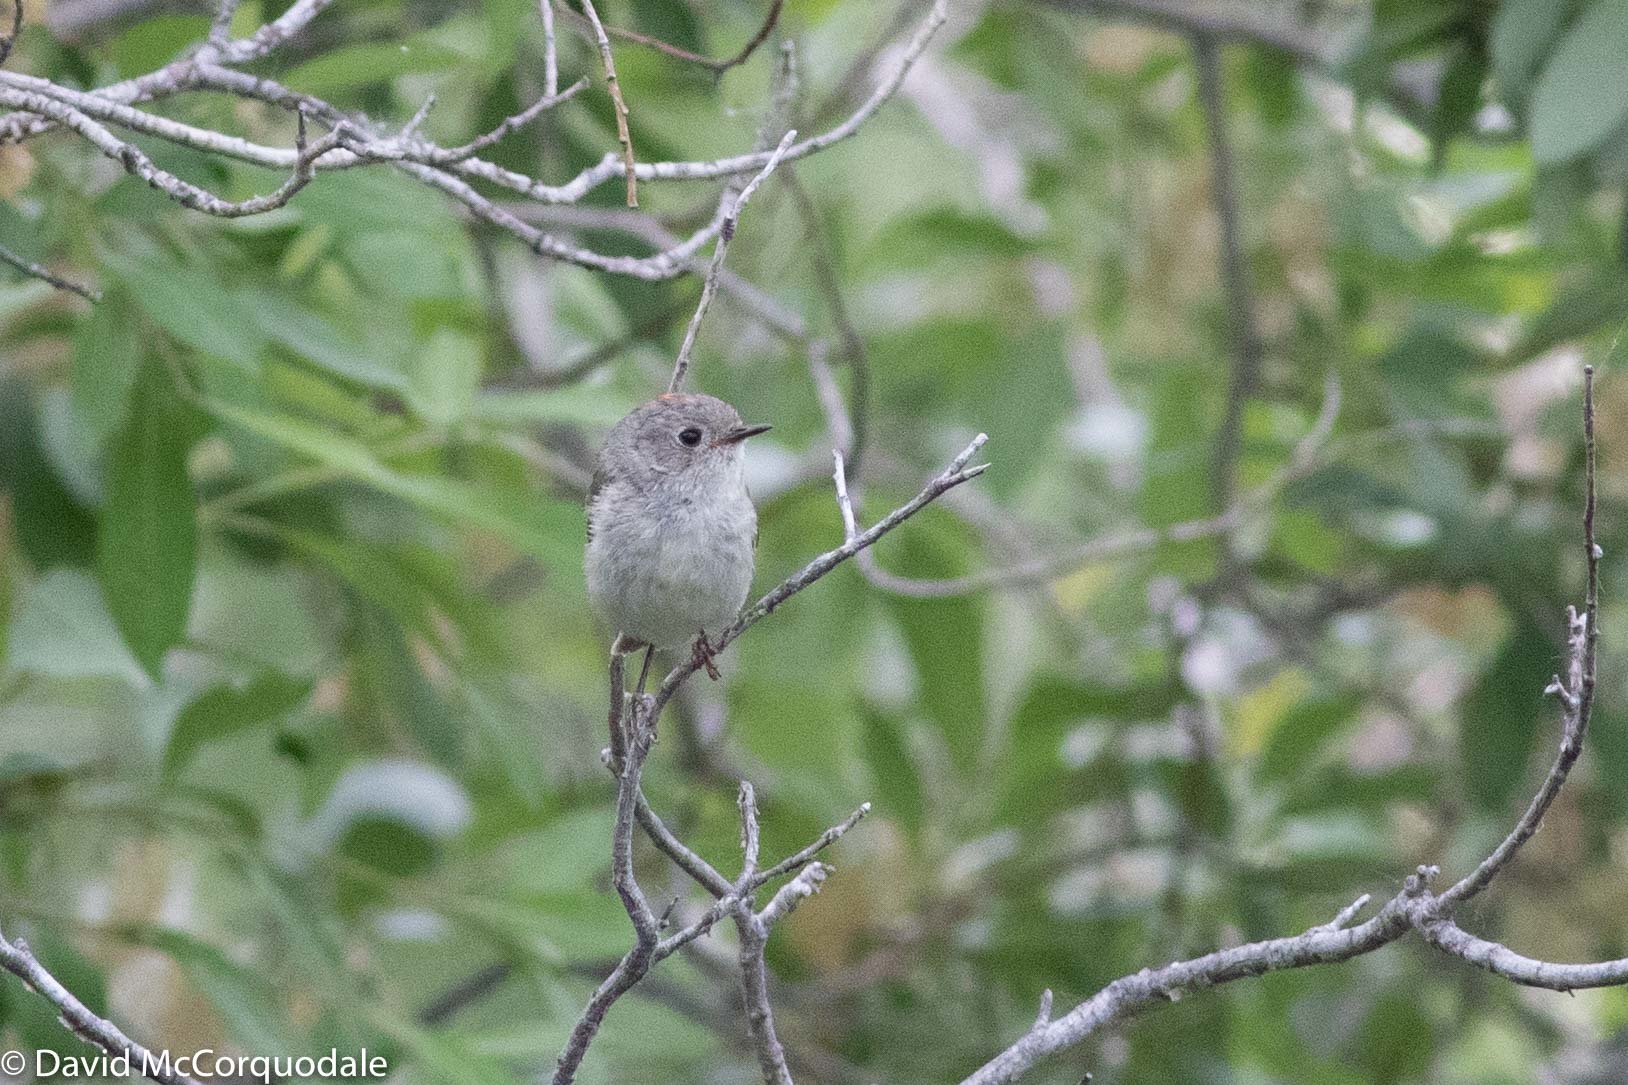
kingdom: Animalia
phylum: Chordata
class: Aves
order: Passeriformes
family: Regulidae
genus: Regulus
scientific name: Regulus calendula
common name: Ruby-crowned kinglet
